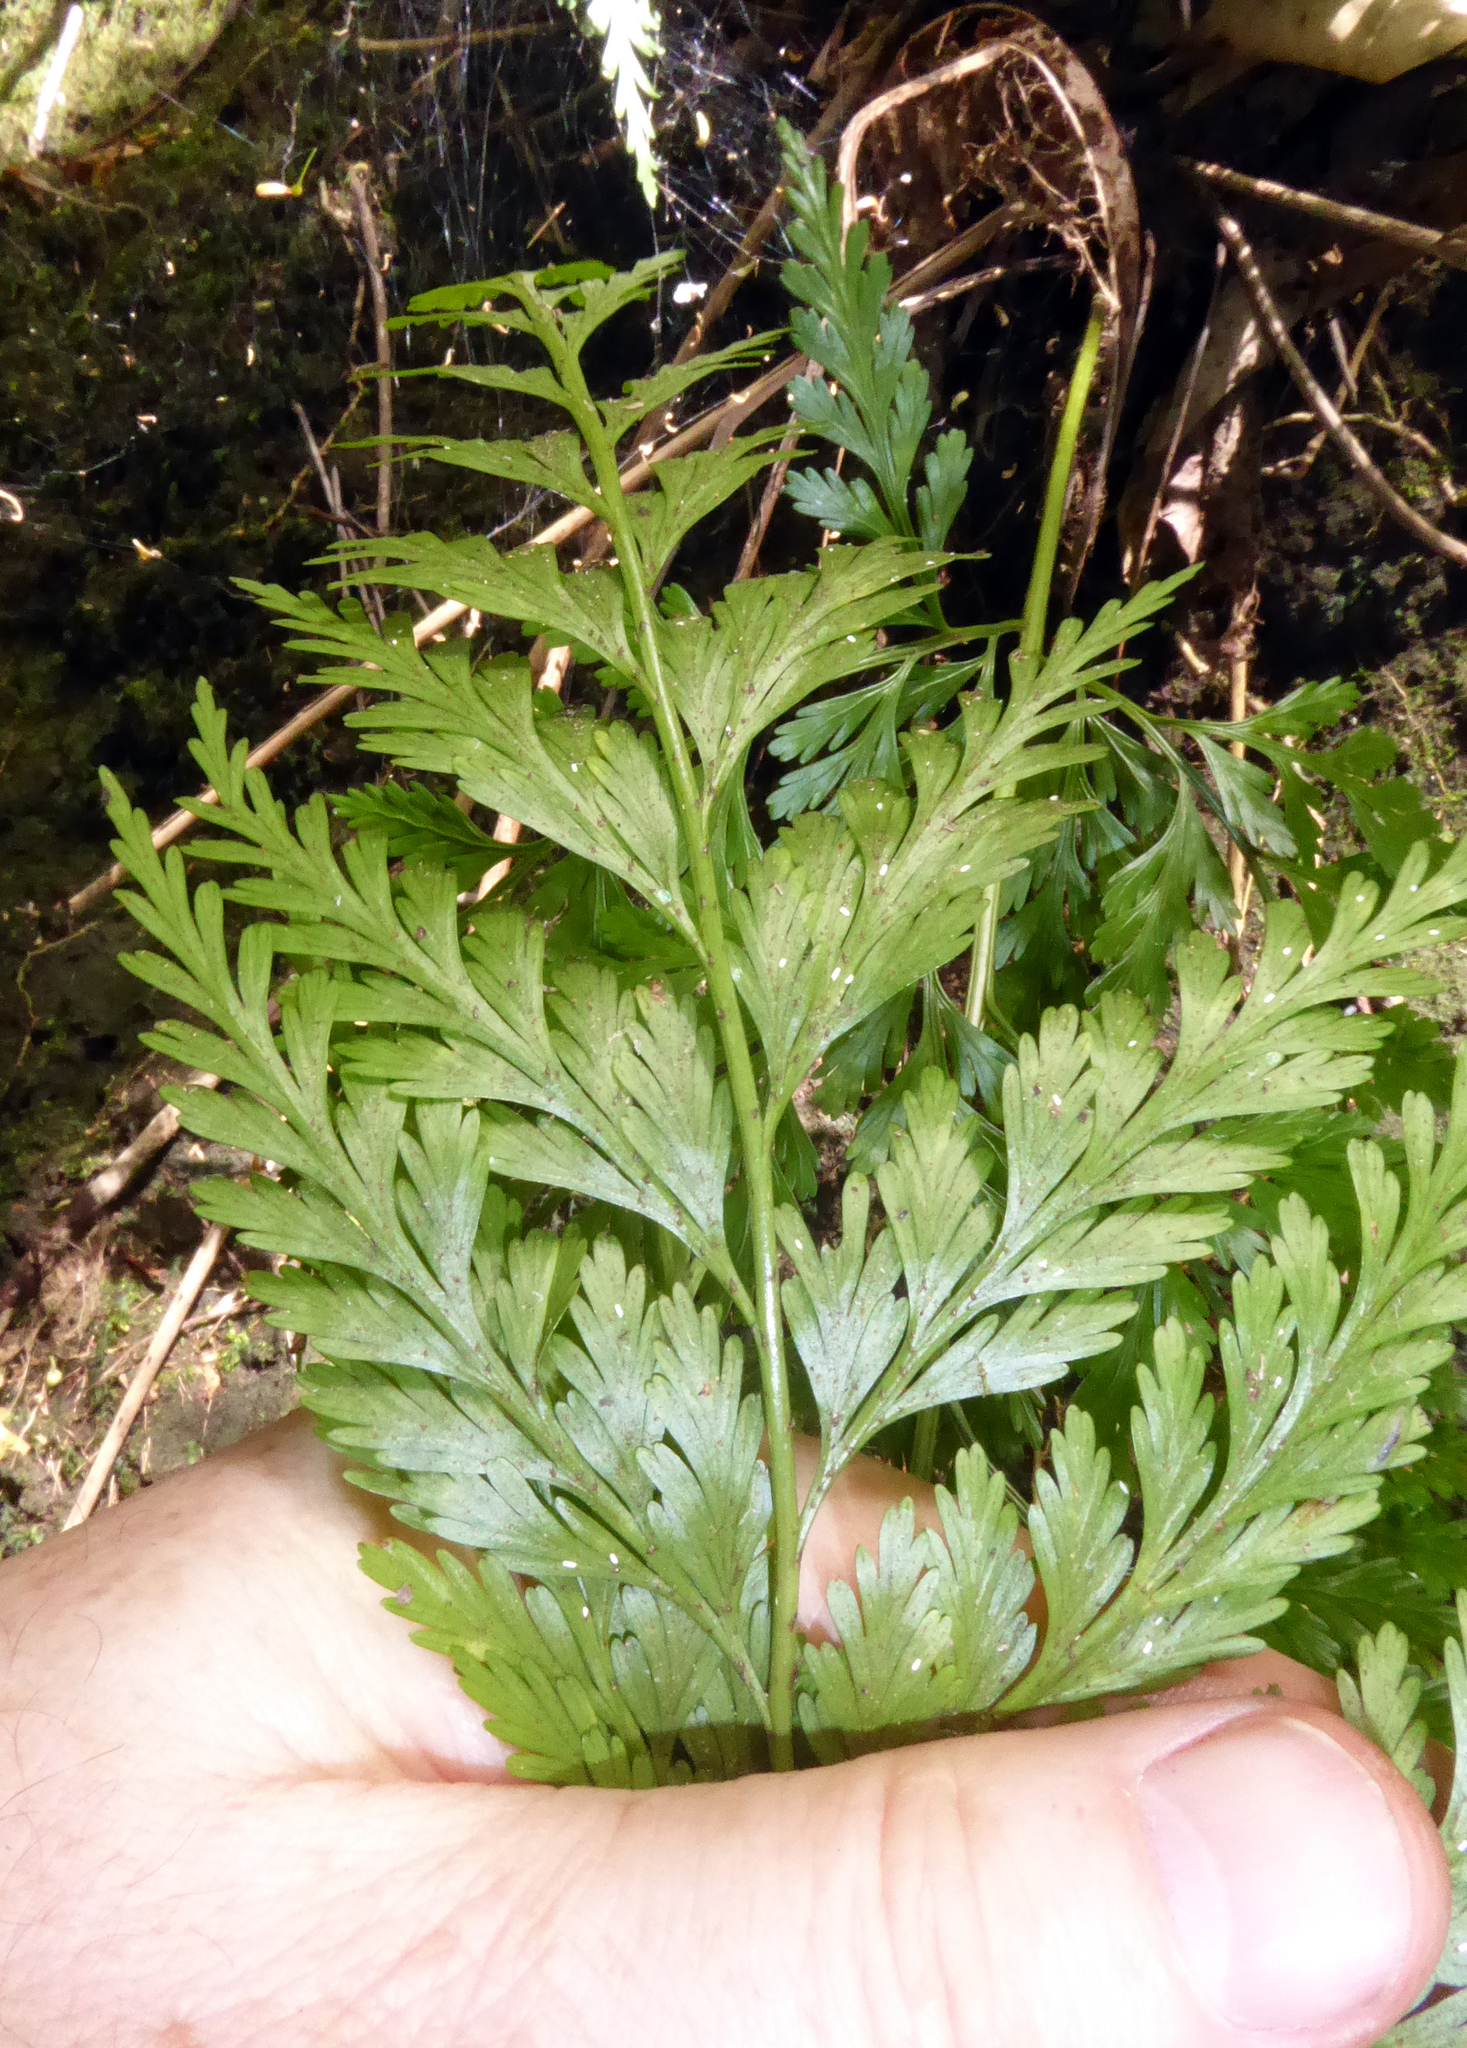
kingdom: Plantae
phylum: Tracheophyta
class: Polypodiopsida
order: Polypodiales
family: Aspleniaceae
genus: Asplenium
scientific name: Asplenium gibberosum
